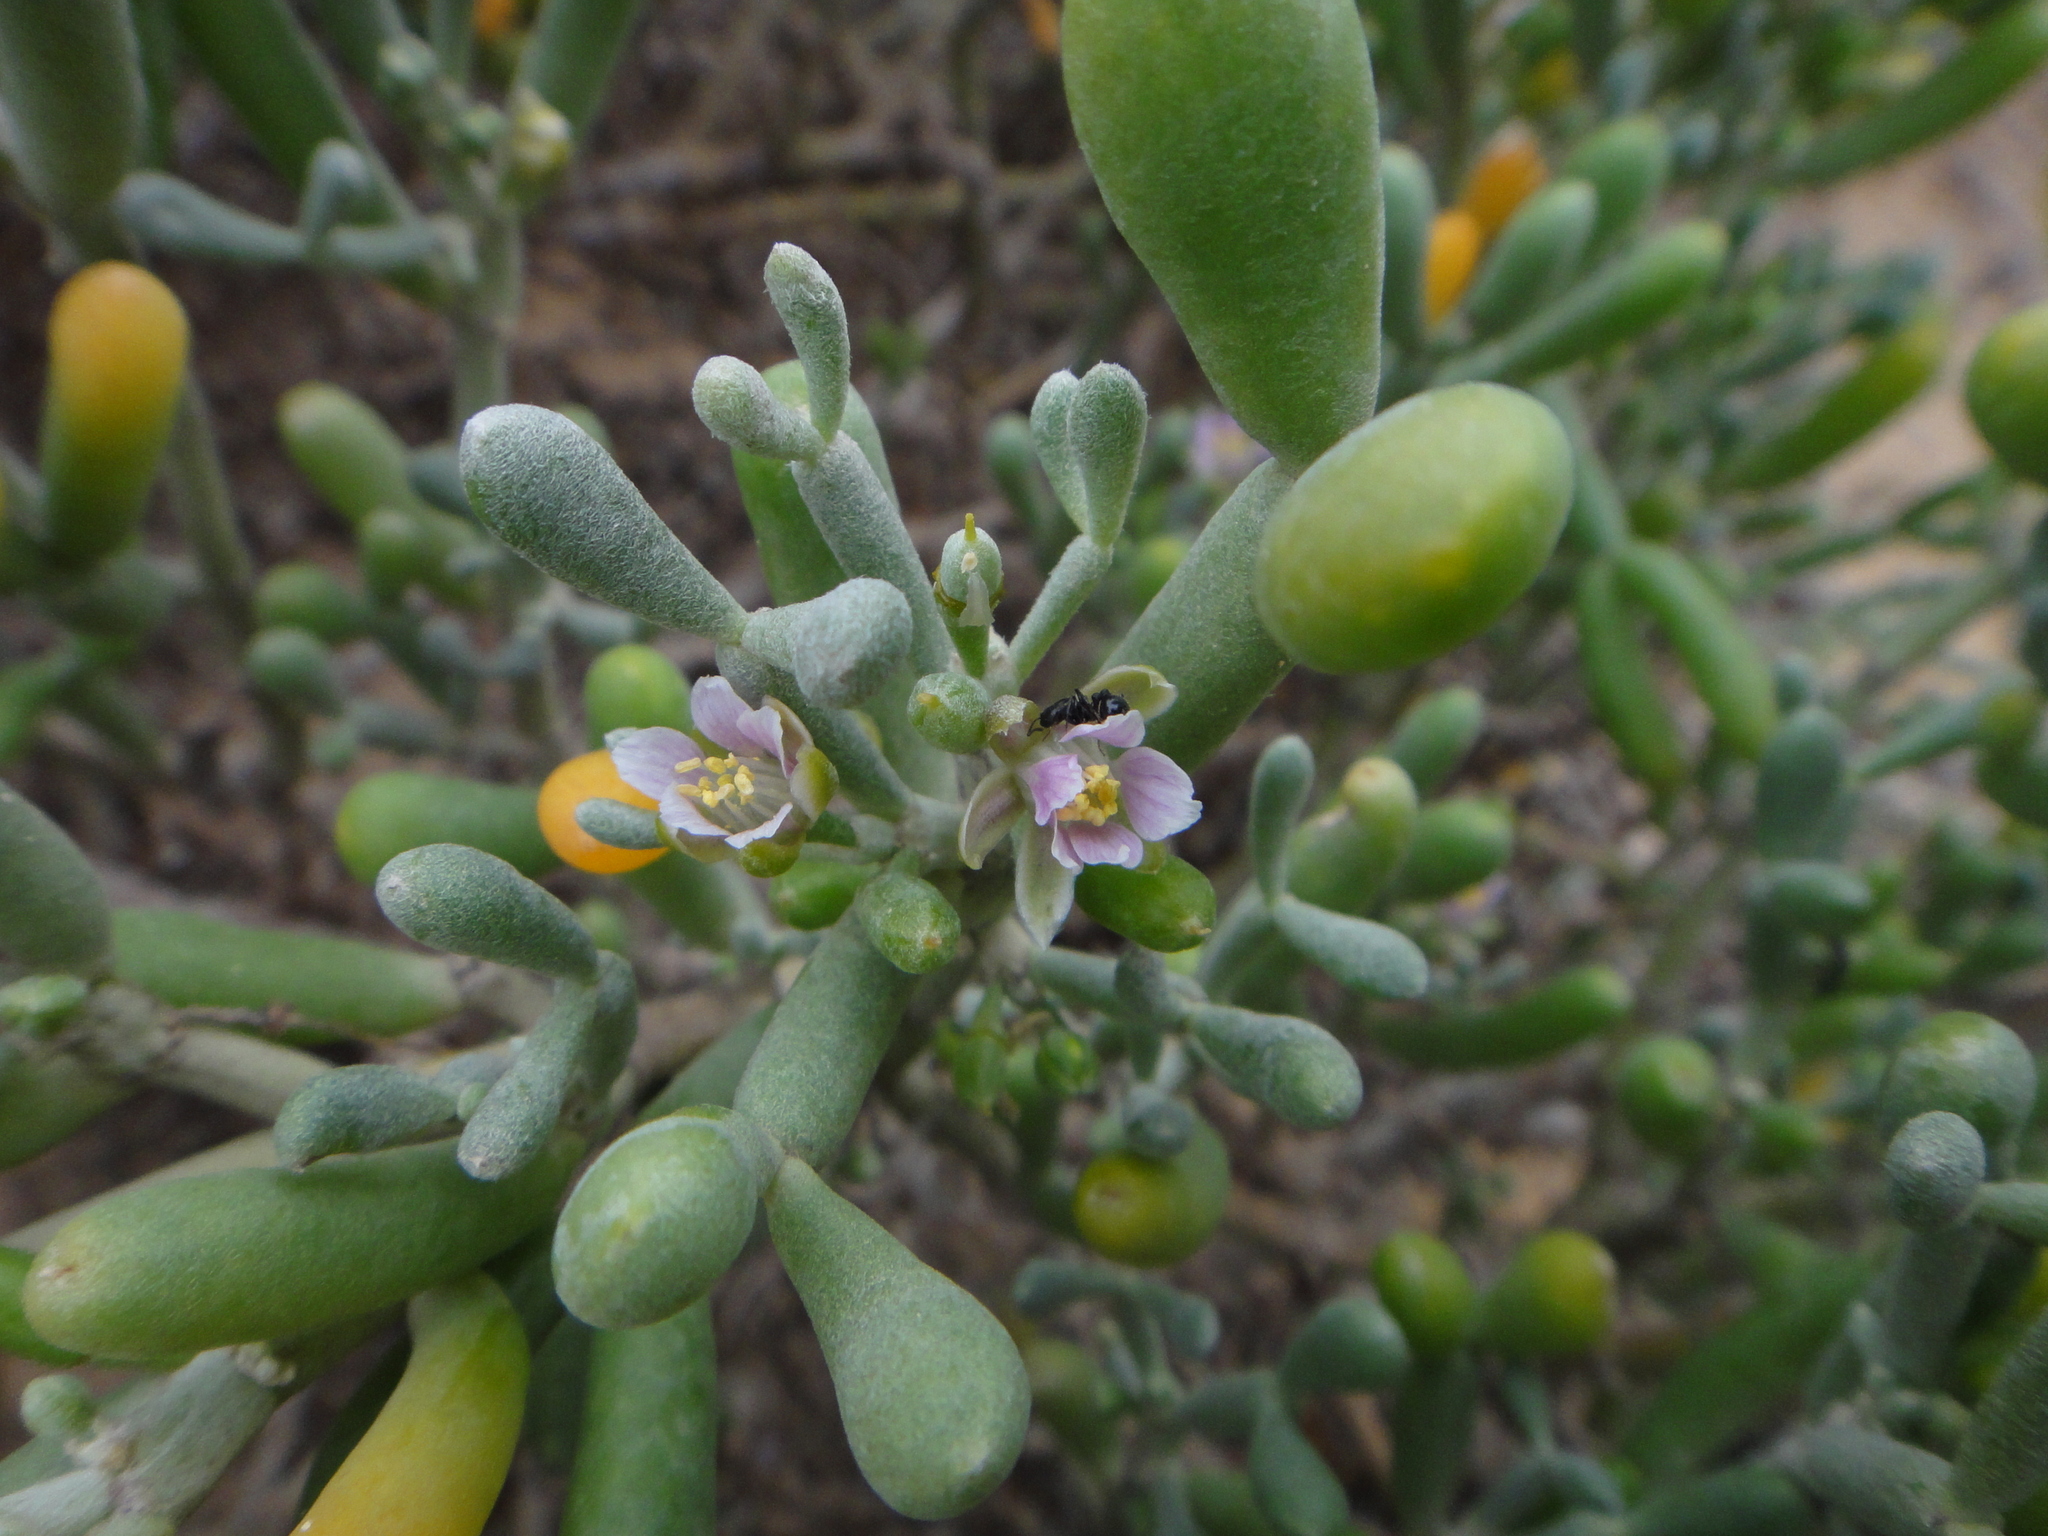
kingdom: Plantae
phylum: Tracheophyta
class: Magnoliopsida
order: Zygophyllales
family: Zygophyllaceae
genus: Tetraena
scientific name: Tetraena fontanesii
